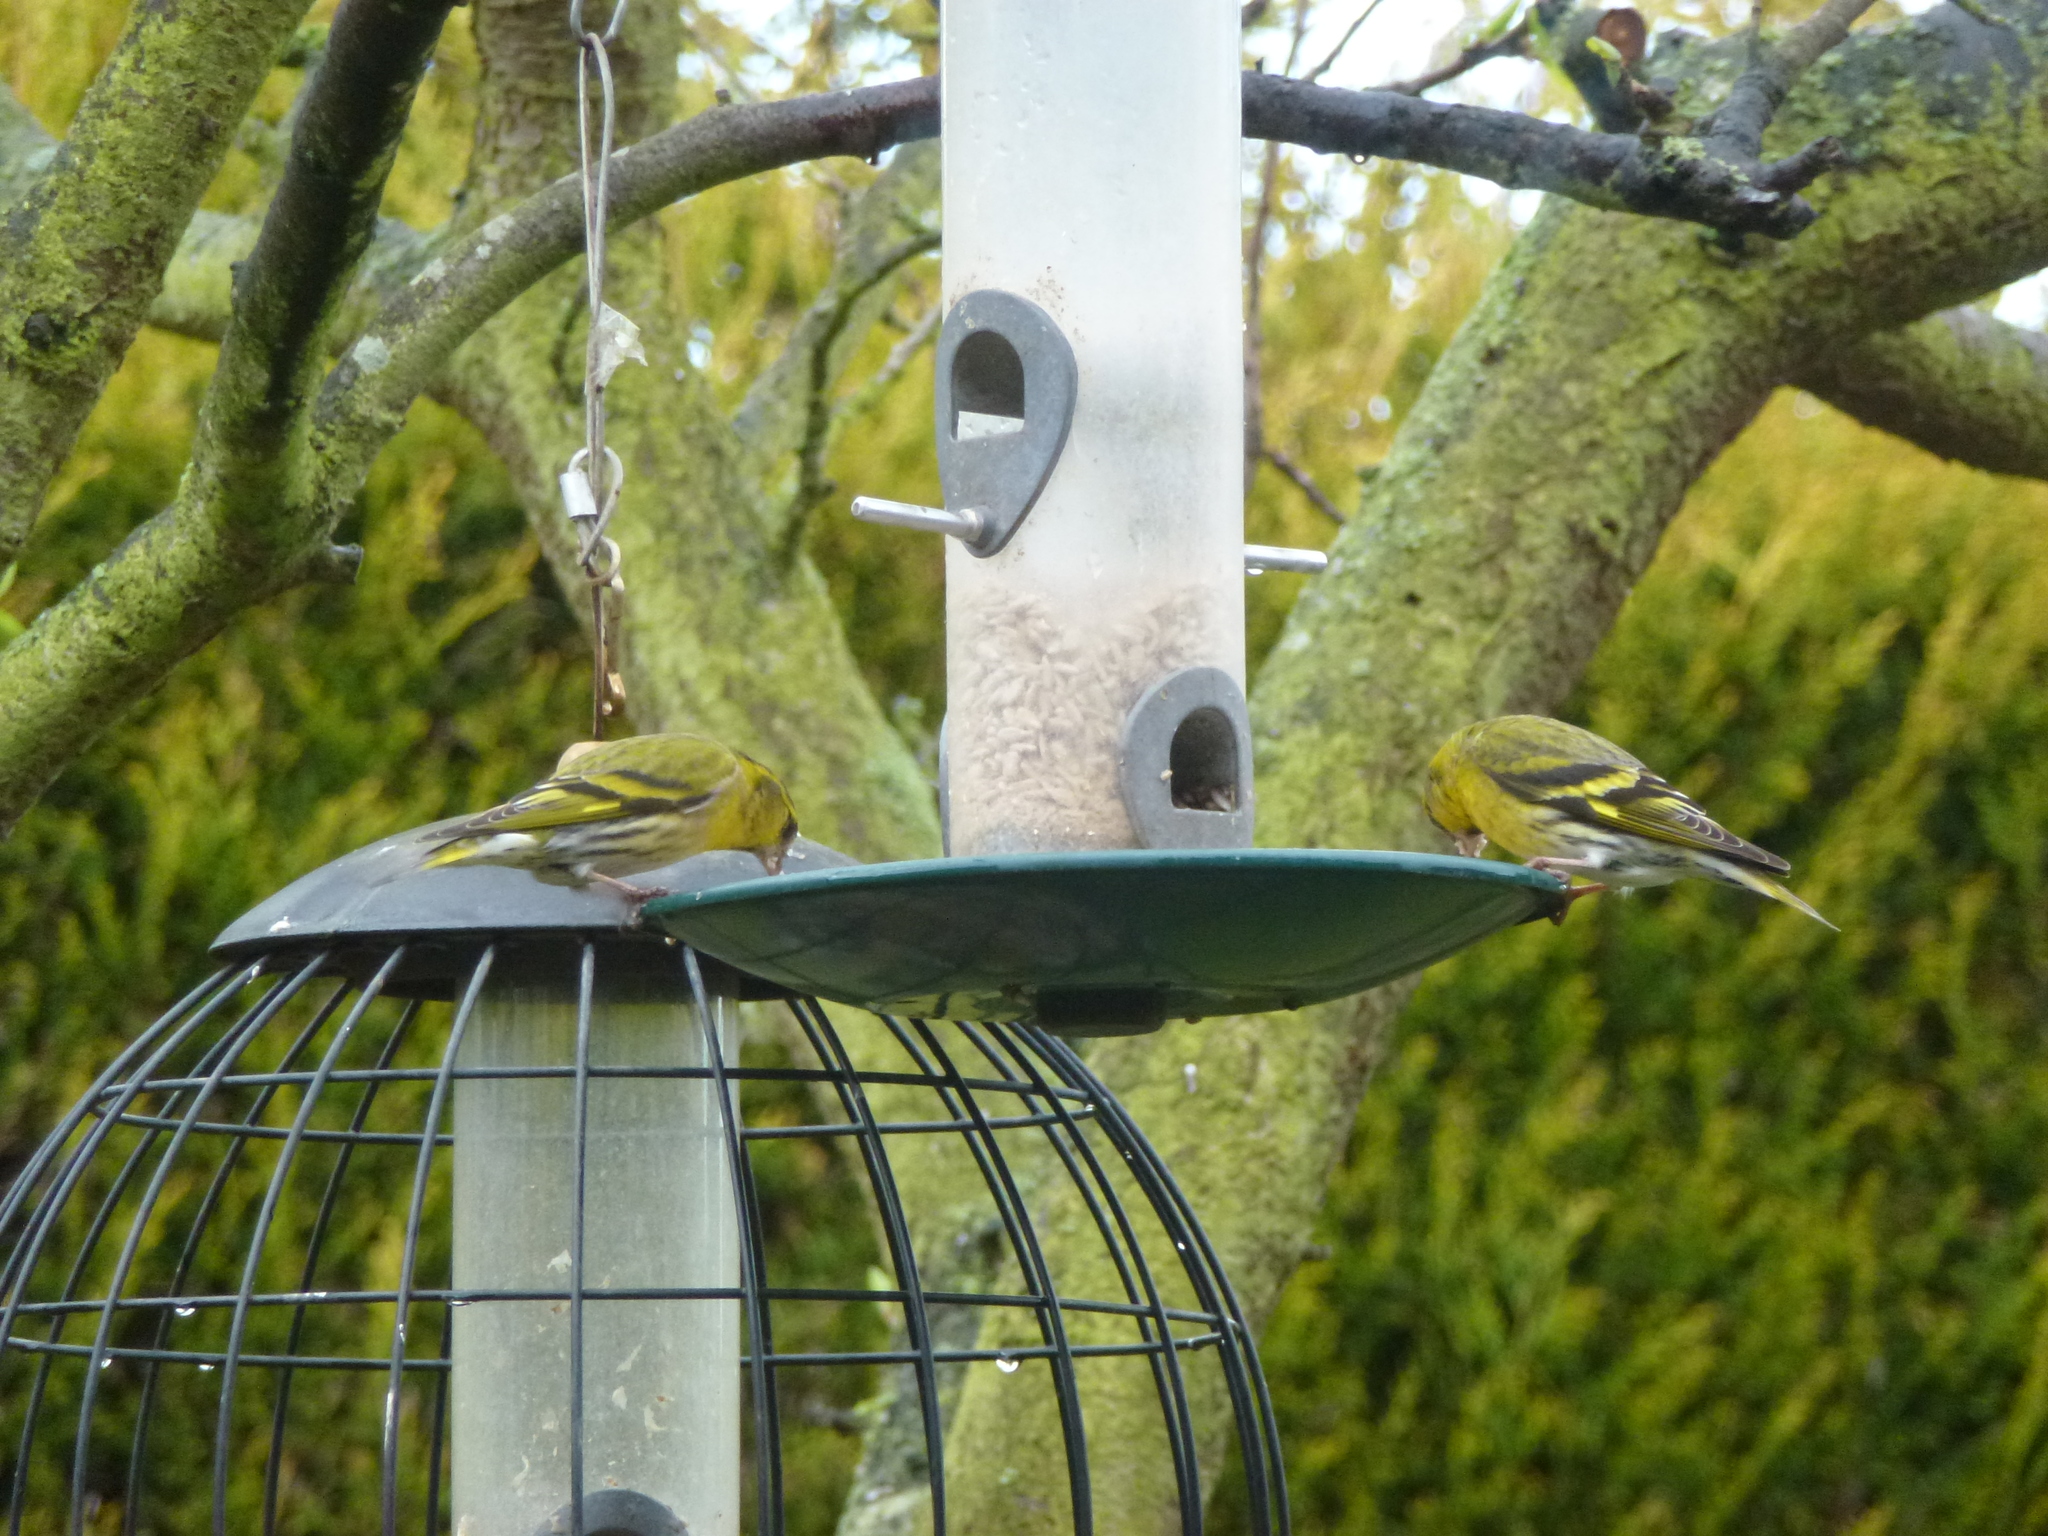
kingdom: Animalia
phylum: Chordata
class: Aves
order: Passeriformes
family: Fringillidae
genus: Spinus
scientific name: Spinus spinus
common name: Eurasian siskin
